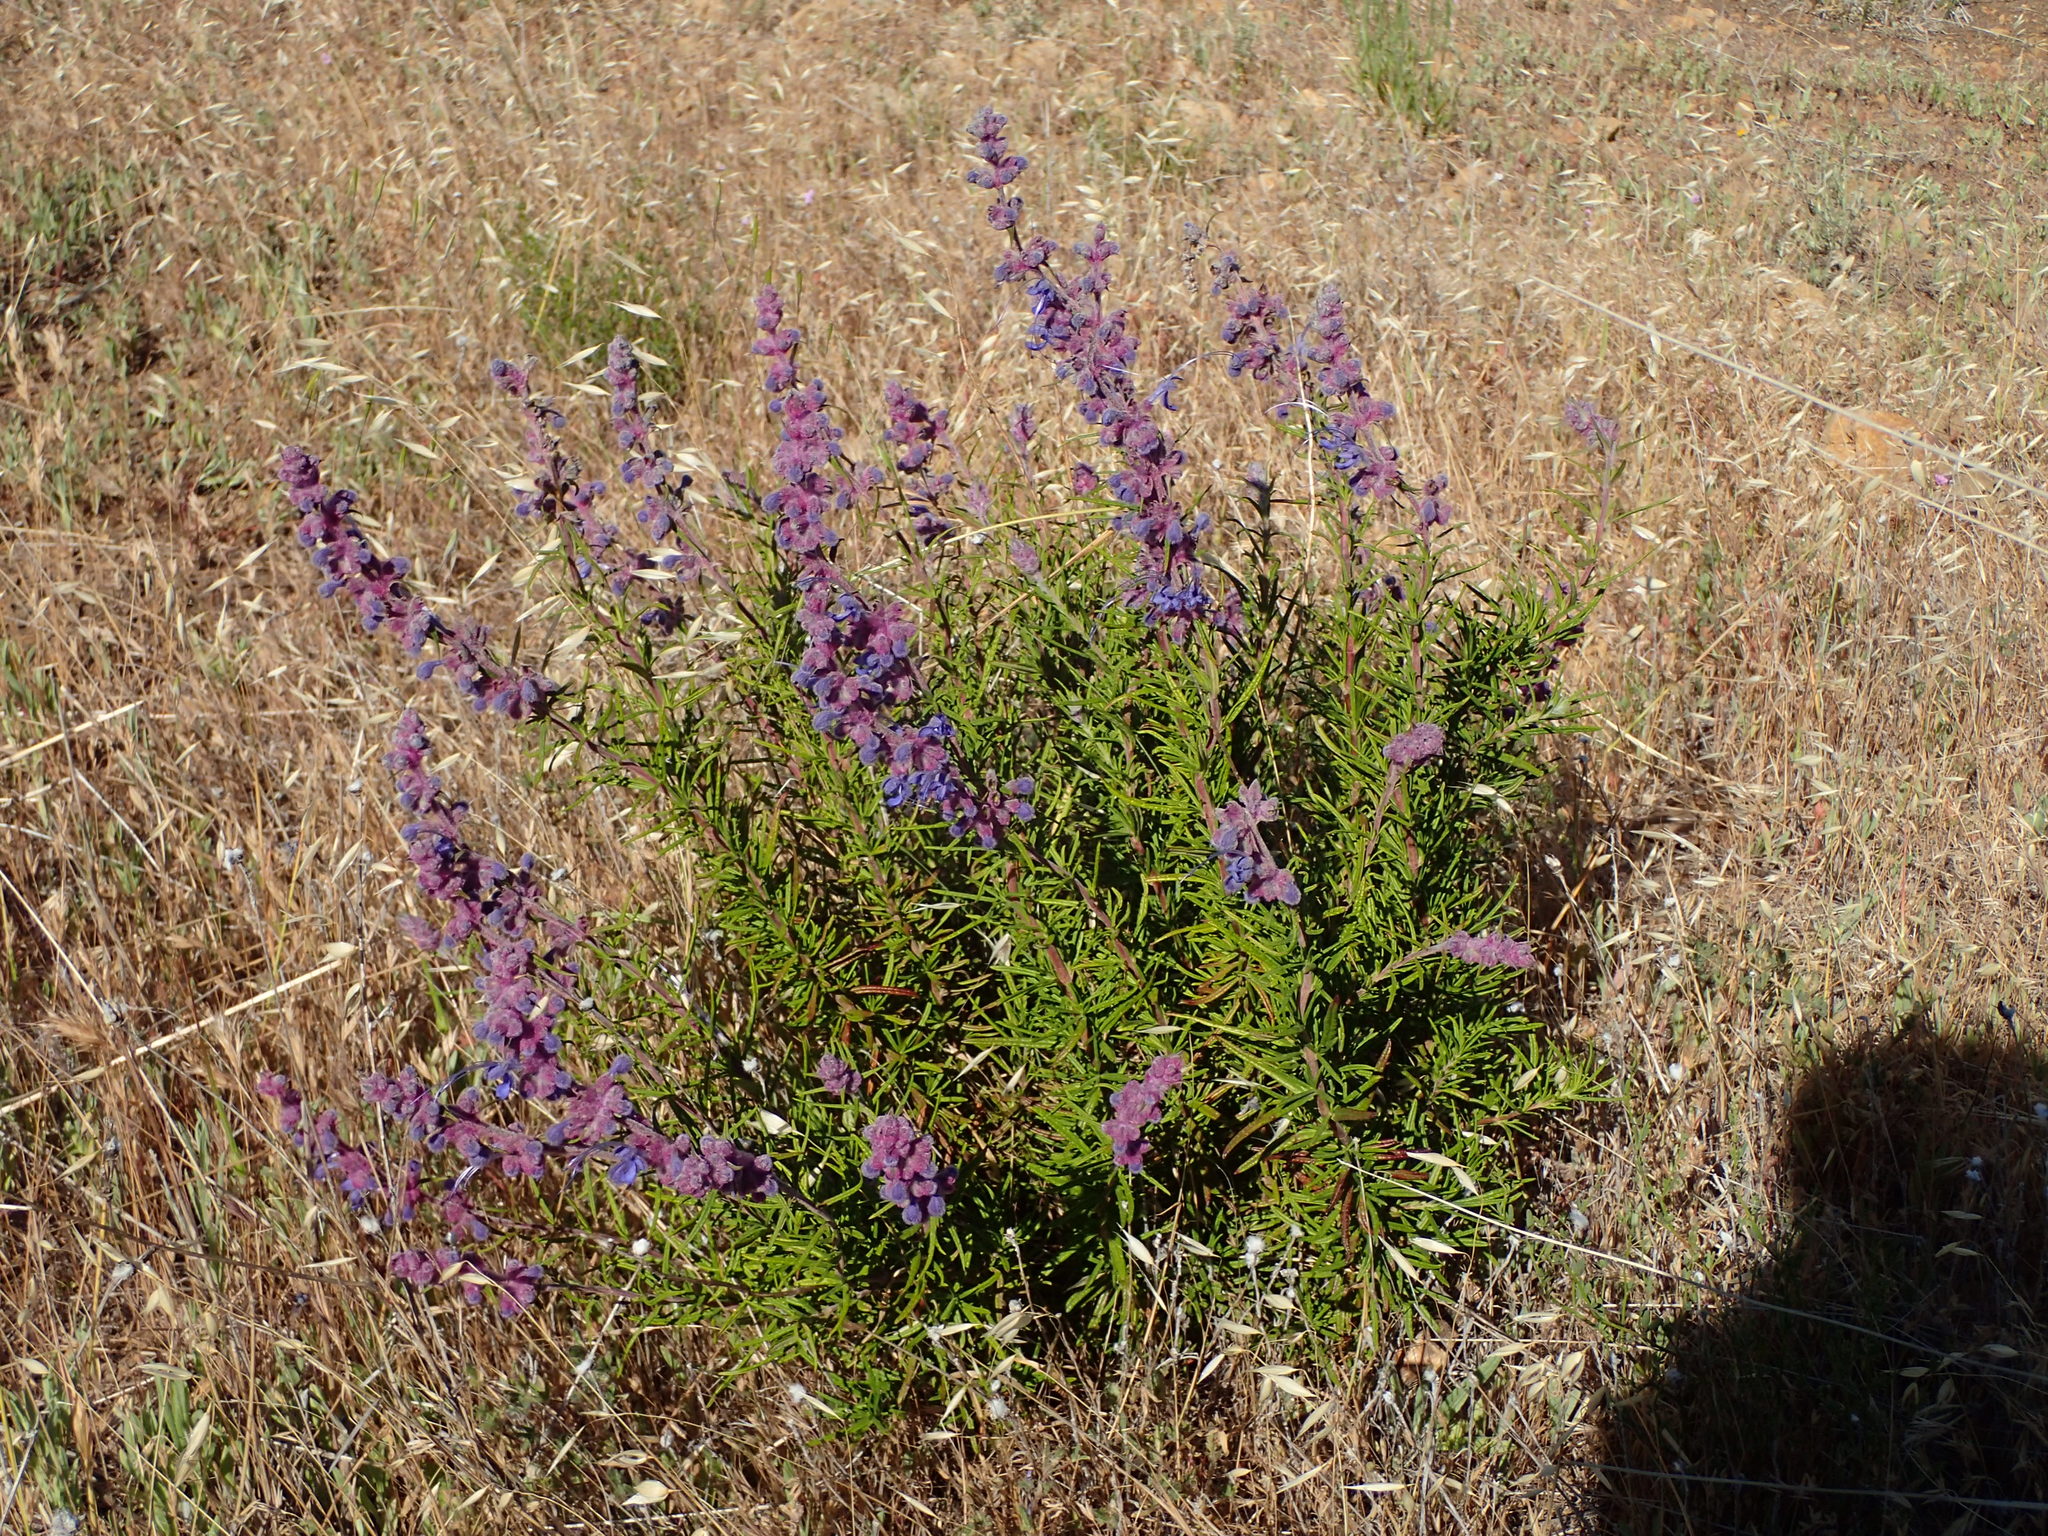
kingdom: Plantae
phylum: Tracheophyta
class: Magnoliopsida
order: Lamiales
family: Lamiaceae
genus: Trichostema
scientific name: Trichostema lanatum
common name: Woolly bluecurls
